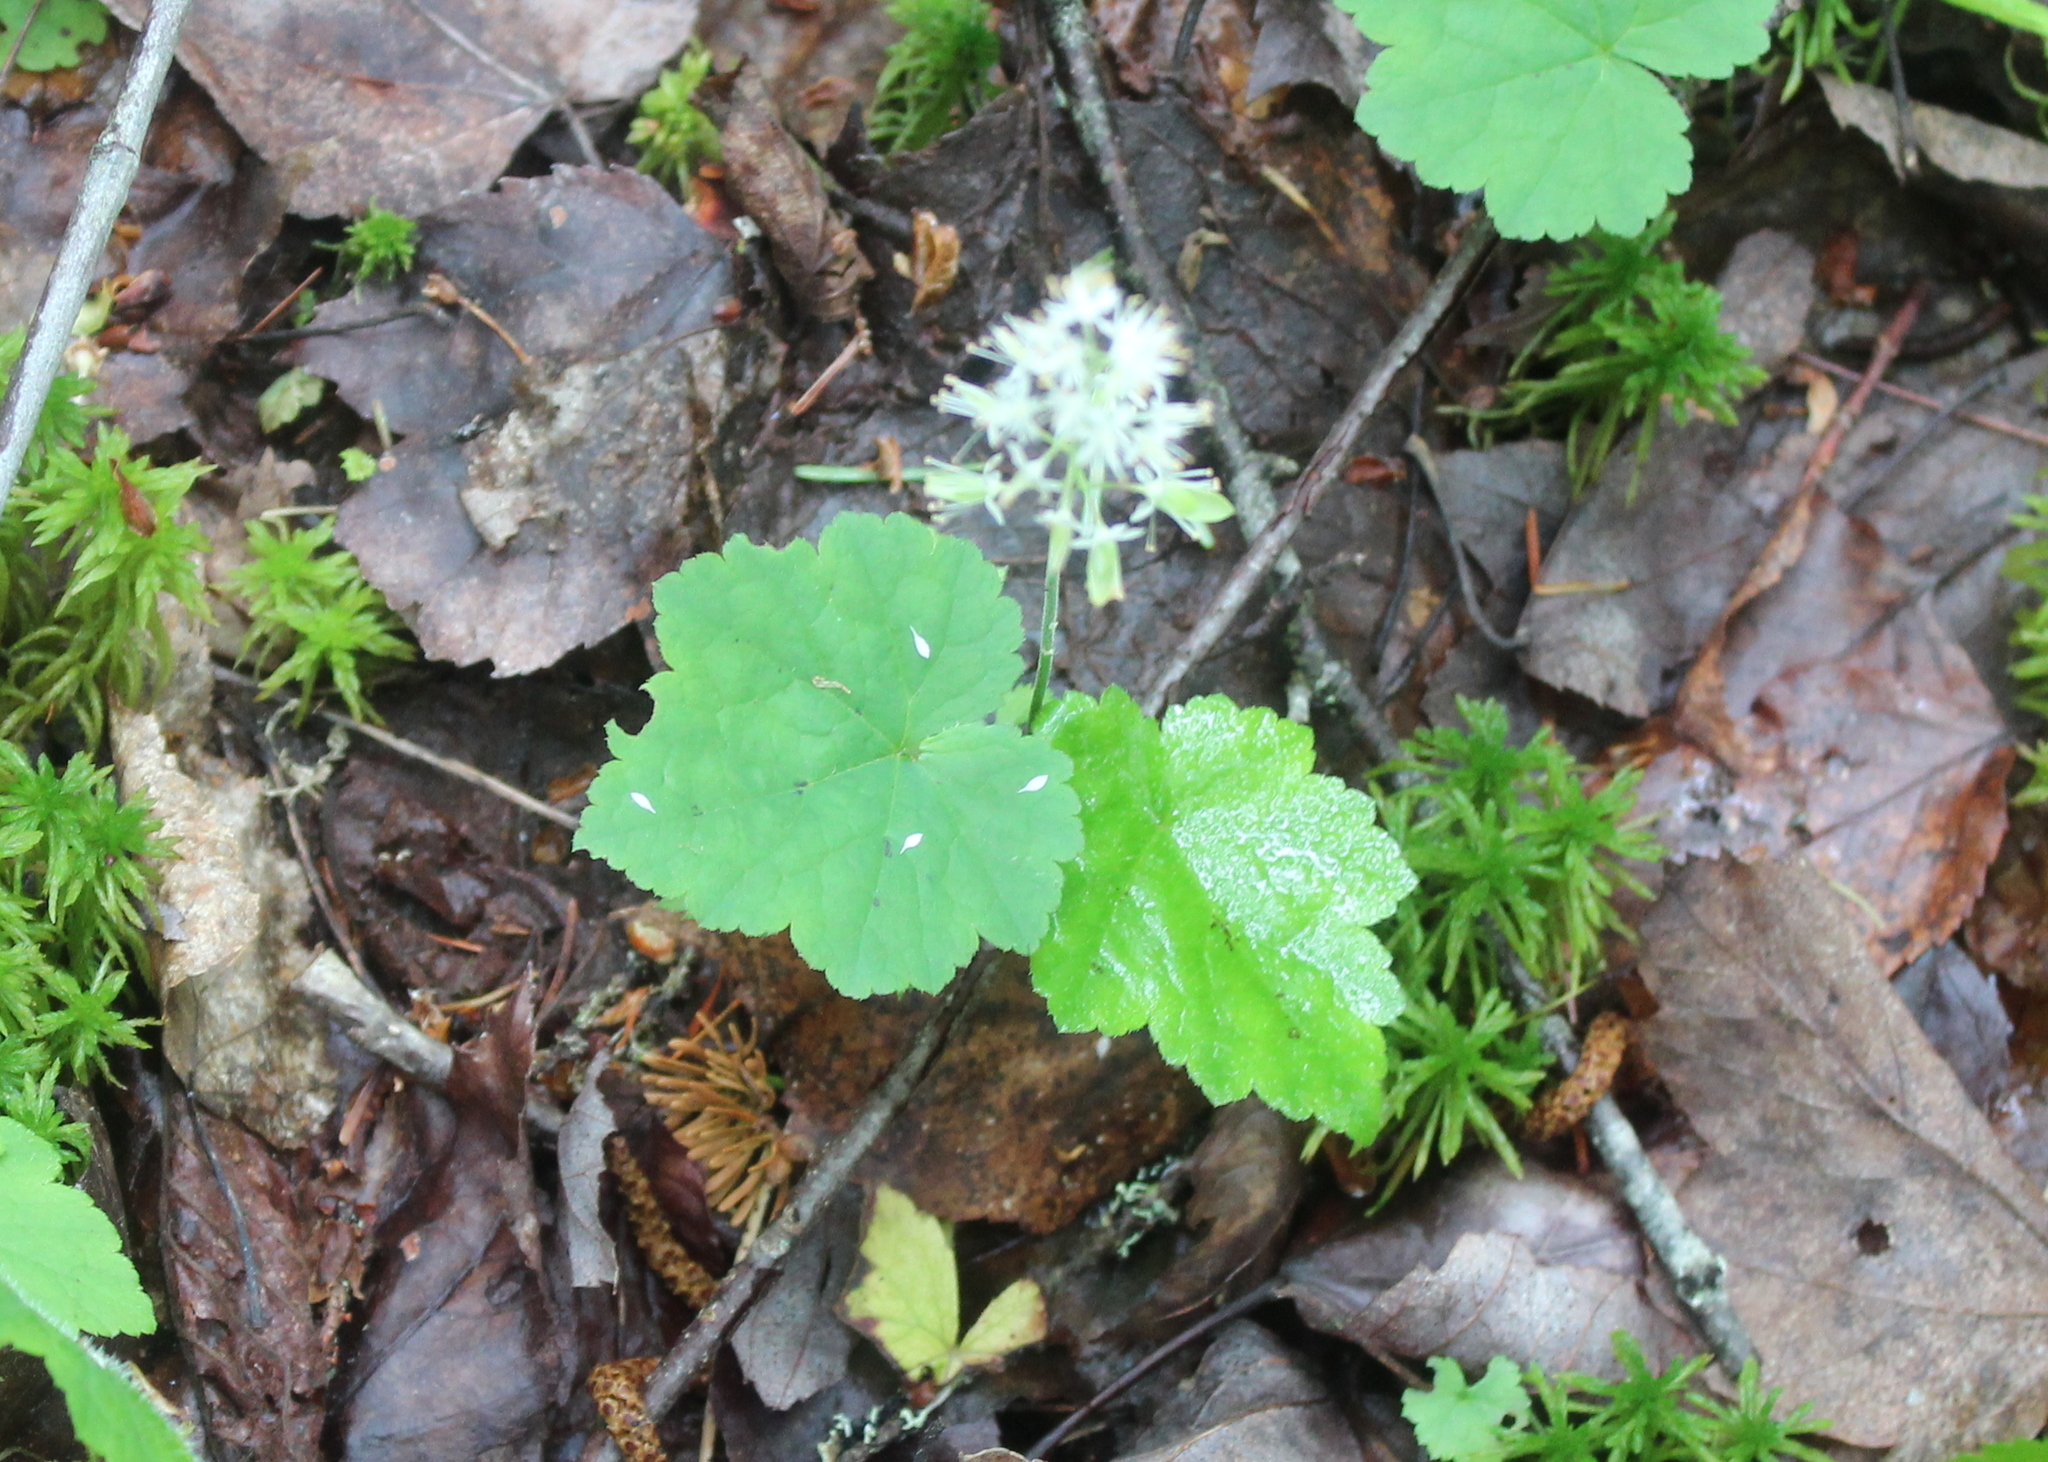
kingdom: Plantae
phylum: Tracheophyta
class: Magnoliopsida
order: Saxifragales
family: Saxifragaceae
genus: Tiarella
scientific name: Tiarella stolonifera
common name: Stoloniferous foamflower
